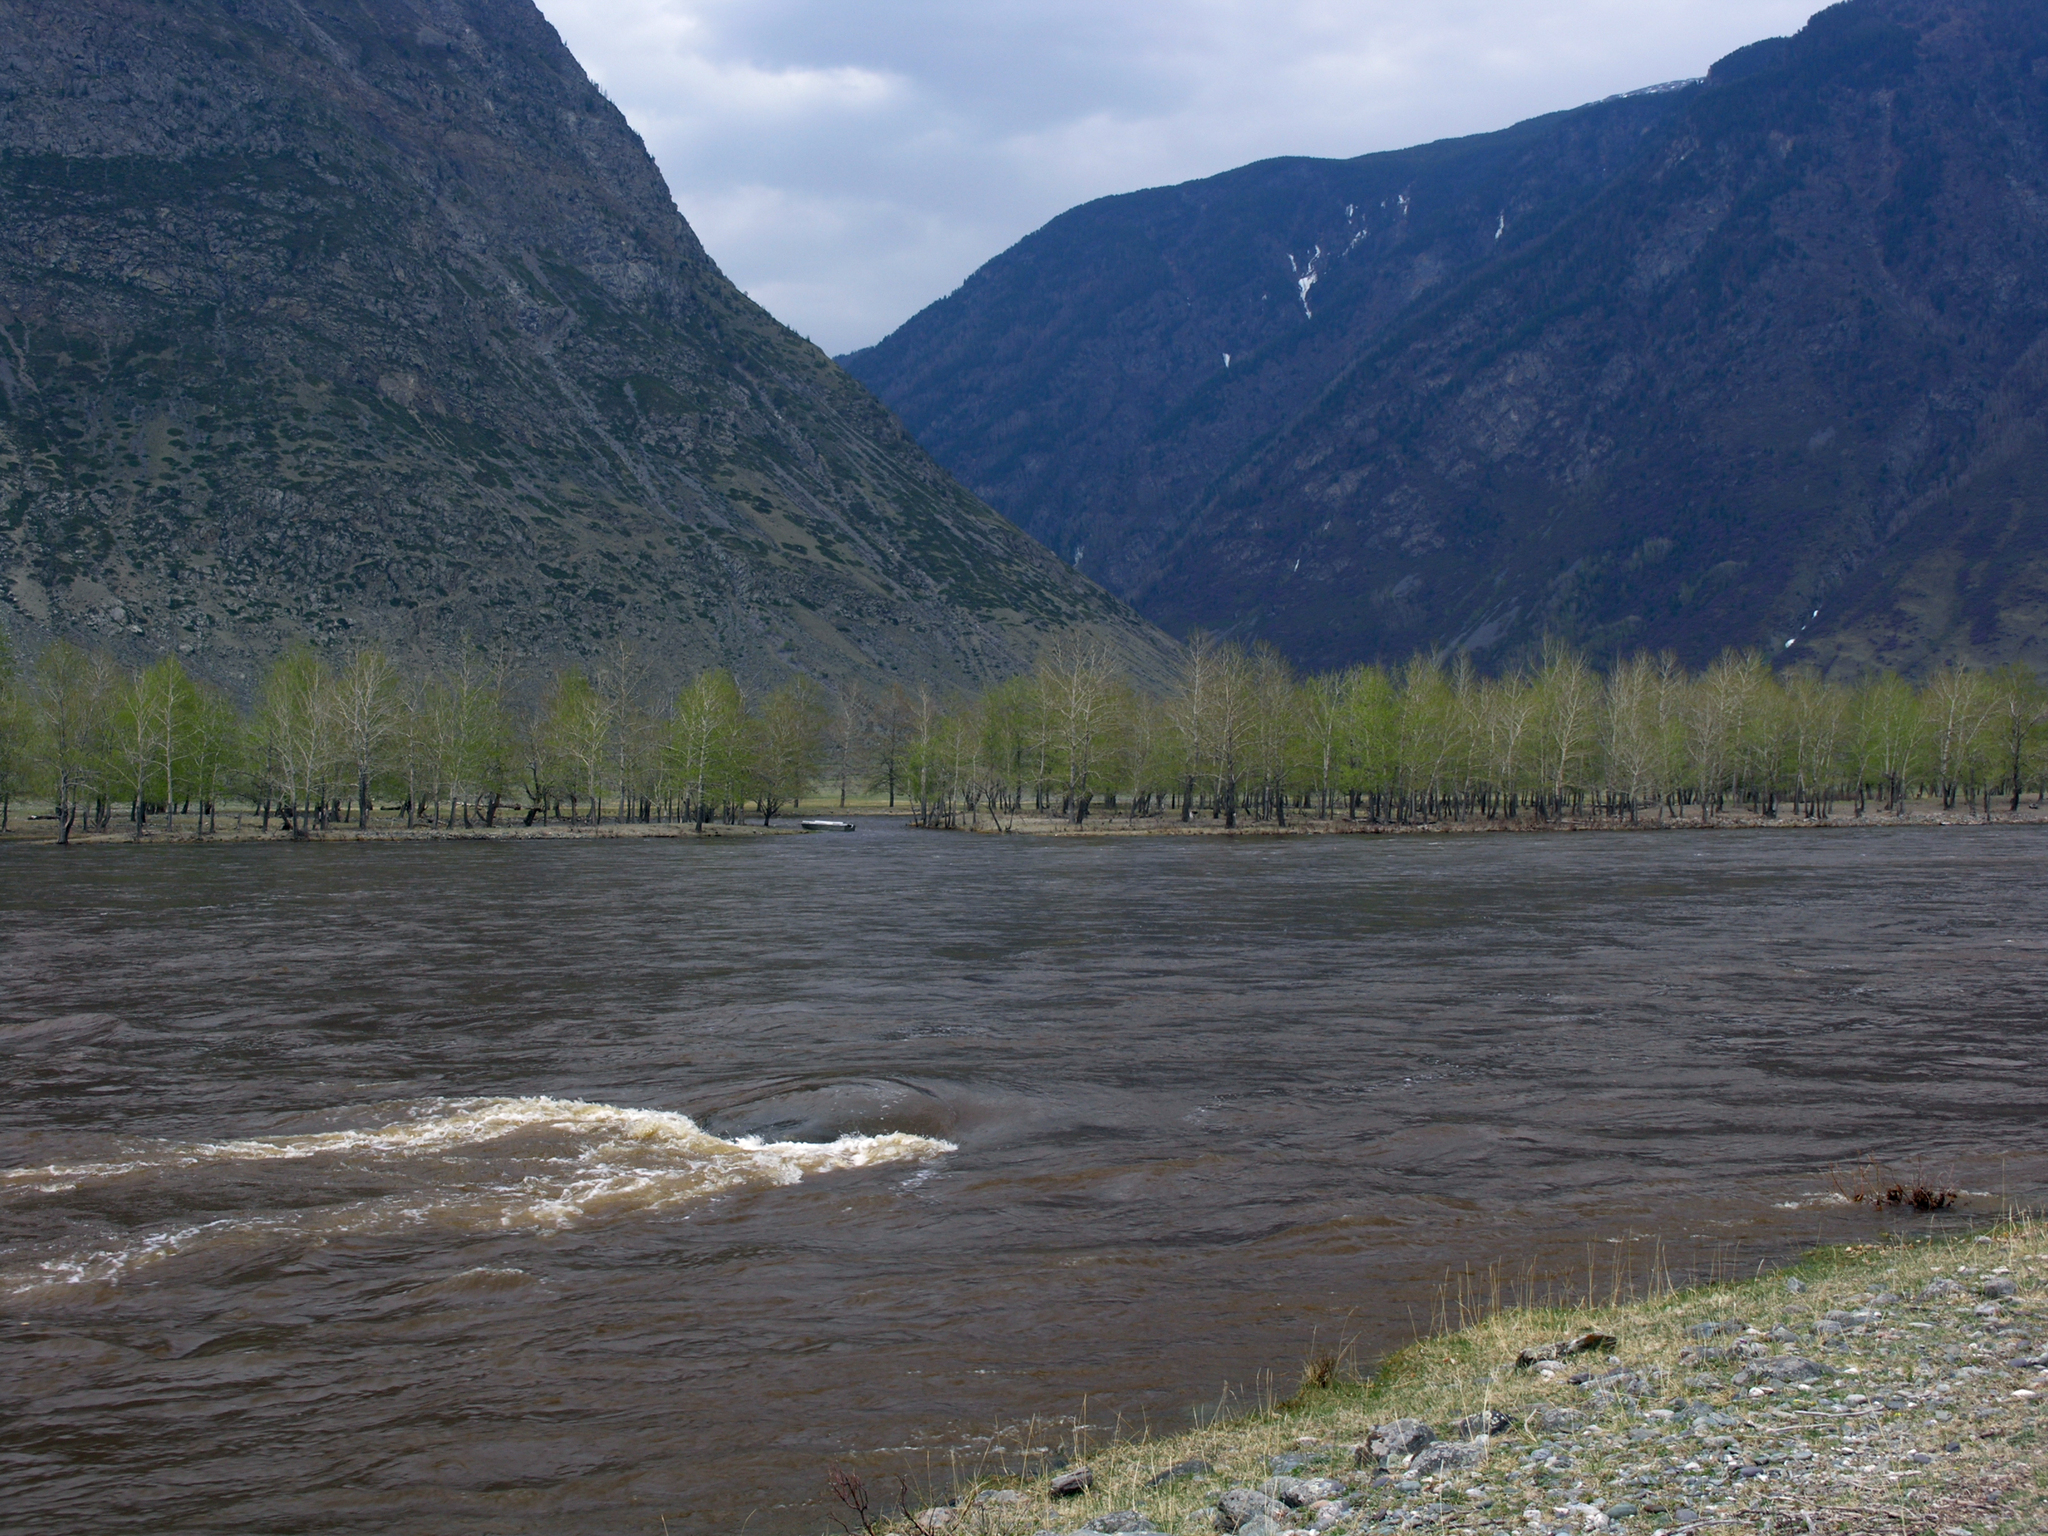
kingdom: Plantae
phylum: Tracheophyta
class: Magnoliopsida
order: Malpighiales
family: Salicaceae
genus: Populus
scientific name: Populus laurifolia
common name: Laurel-leaf poplar
